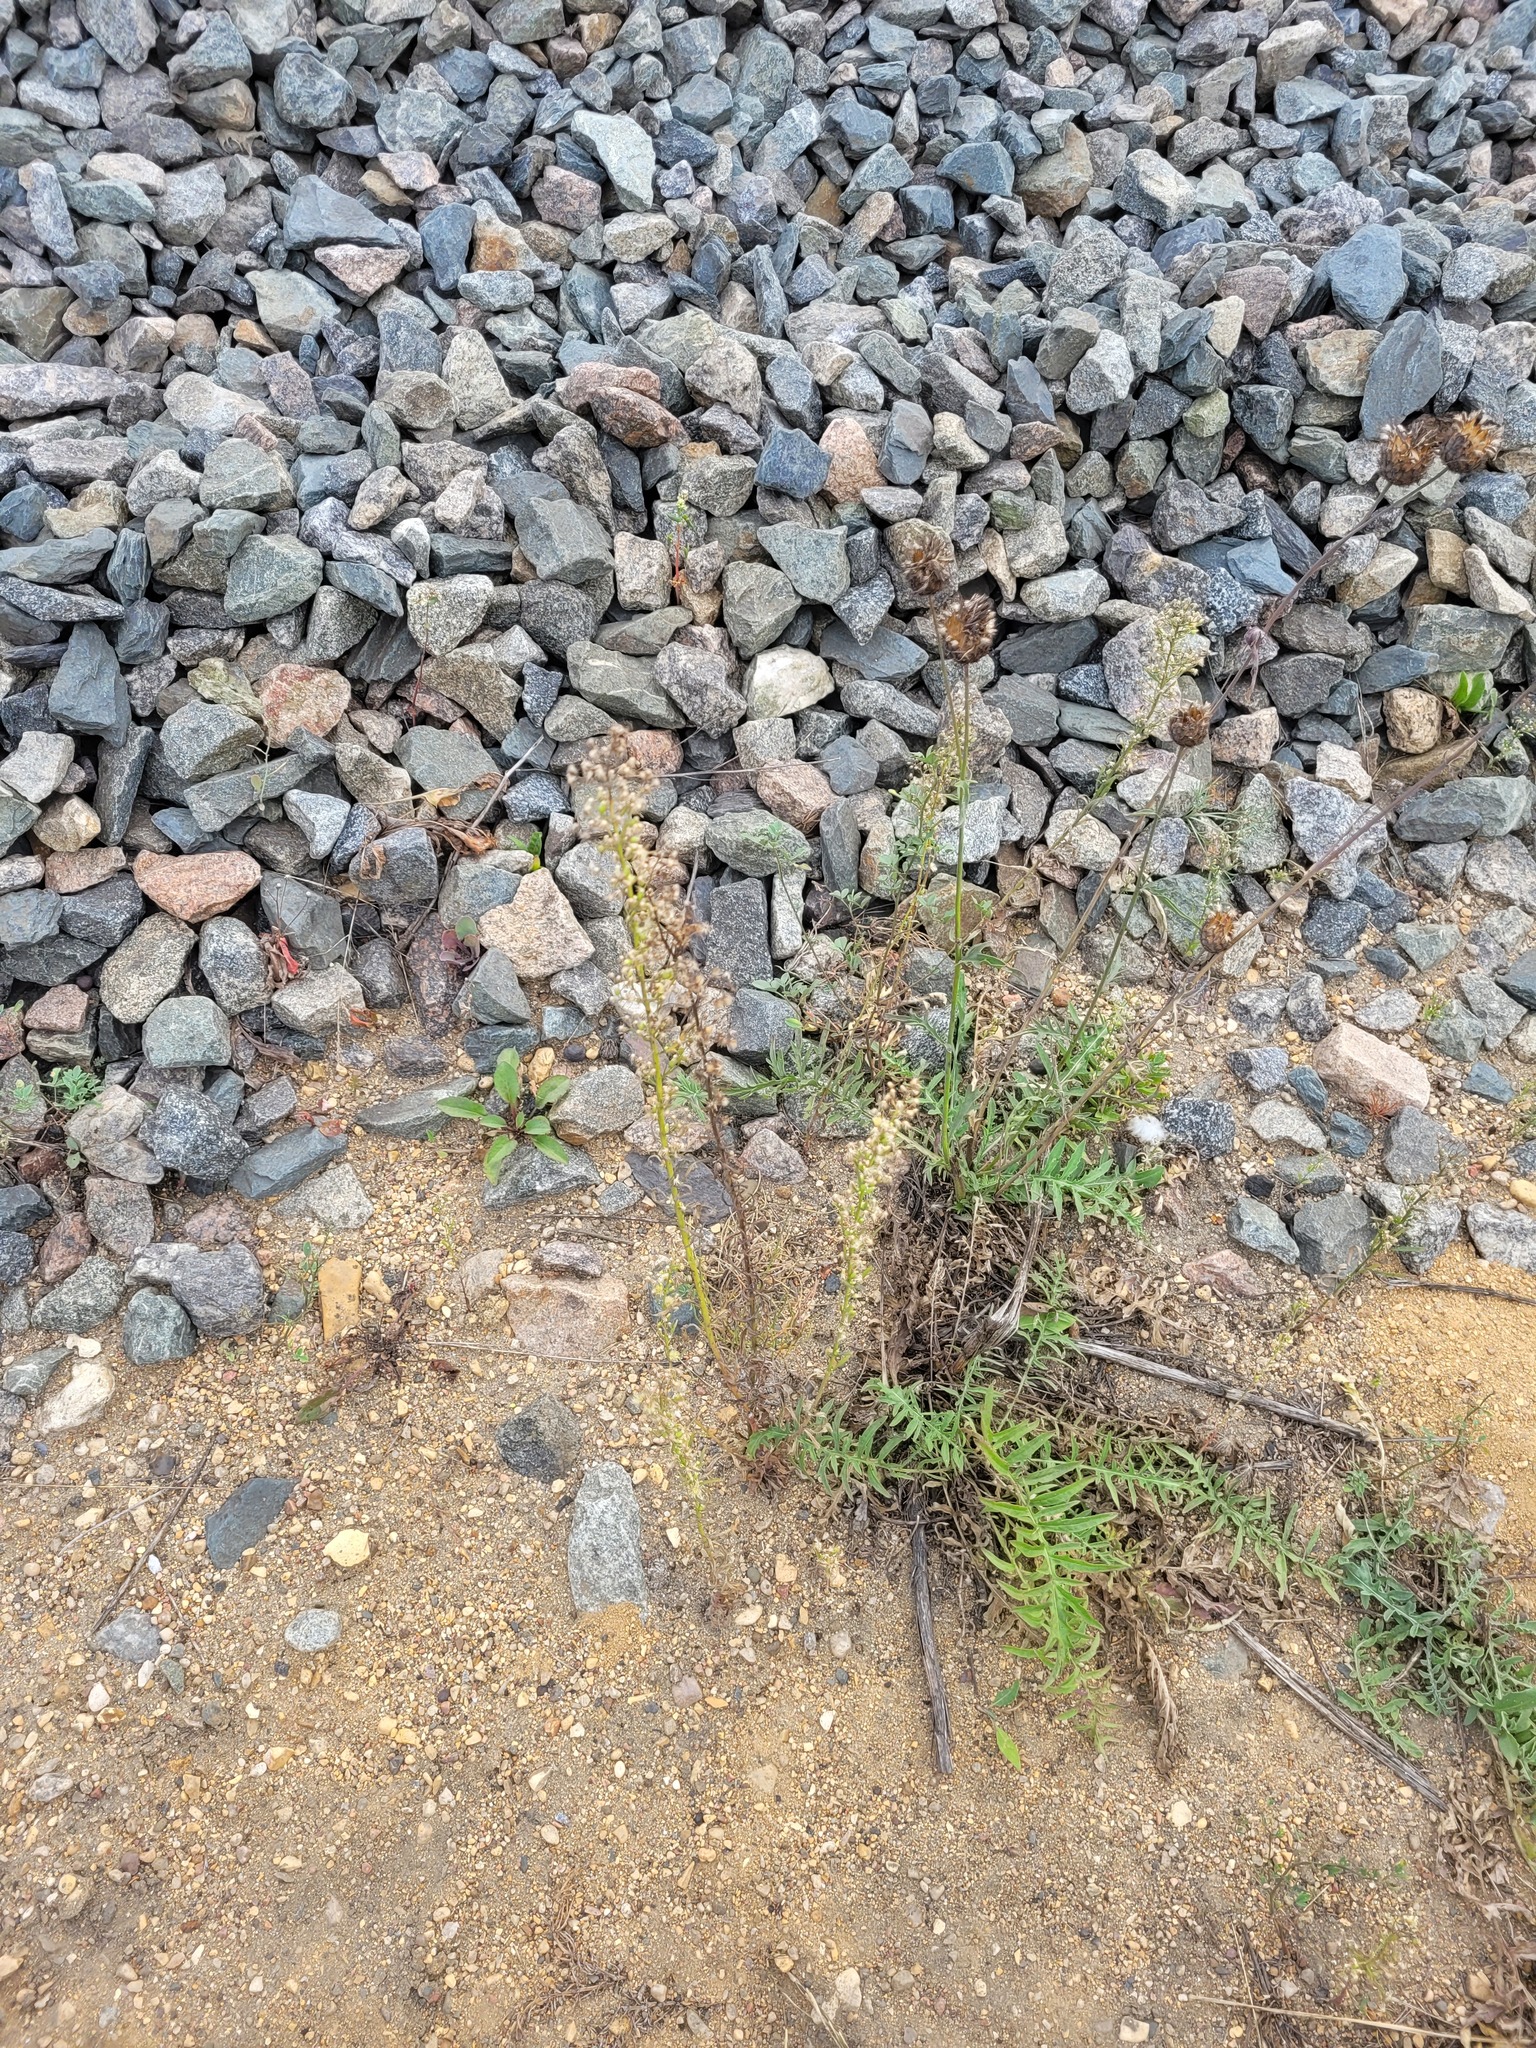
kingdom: Plantae
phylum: Tracheophyta
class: Magnoliopsida
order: Asterales
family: Asteraceae
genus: Erigeron
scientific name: Erigeron canadensis
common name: Canadian fleabane
